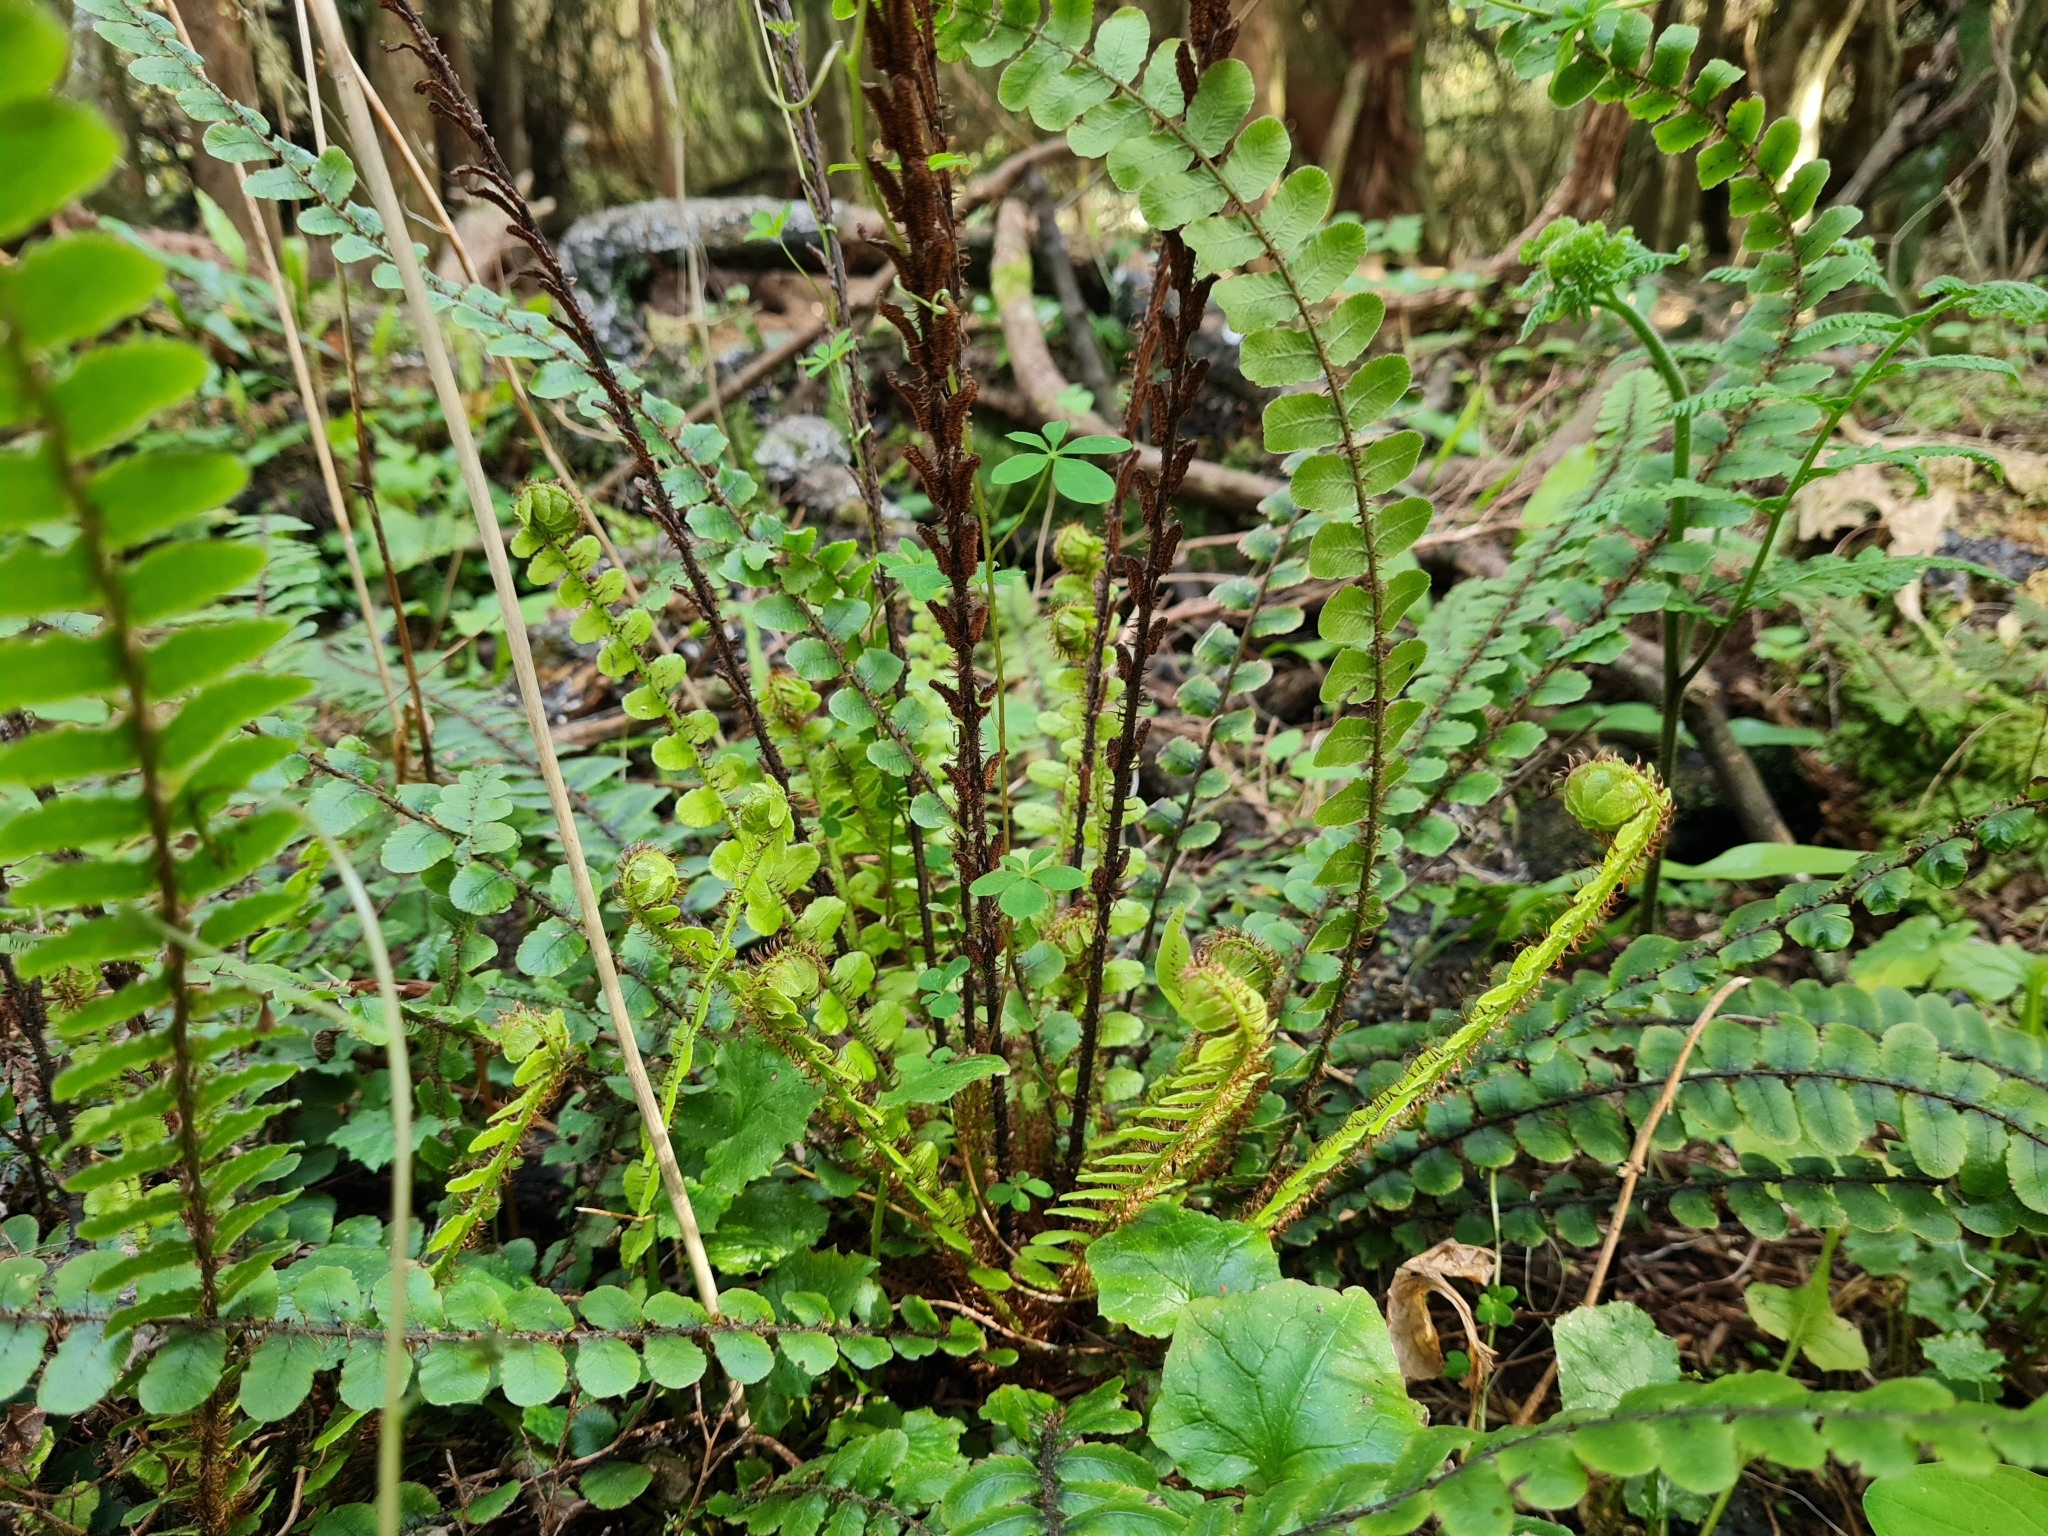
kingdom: Plantae
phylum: Tracheophyta
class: Polypodiopsida
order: Polypodiales
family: Blechnaceae
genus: Cranfillia
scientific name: Cranfillia fluviatilis
